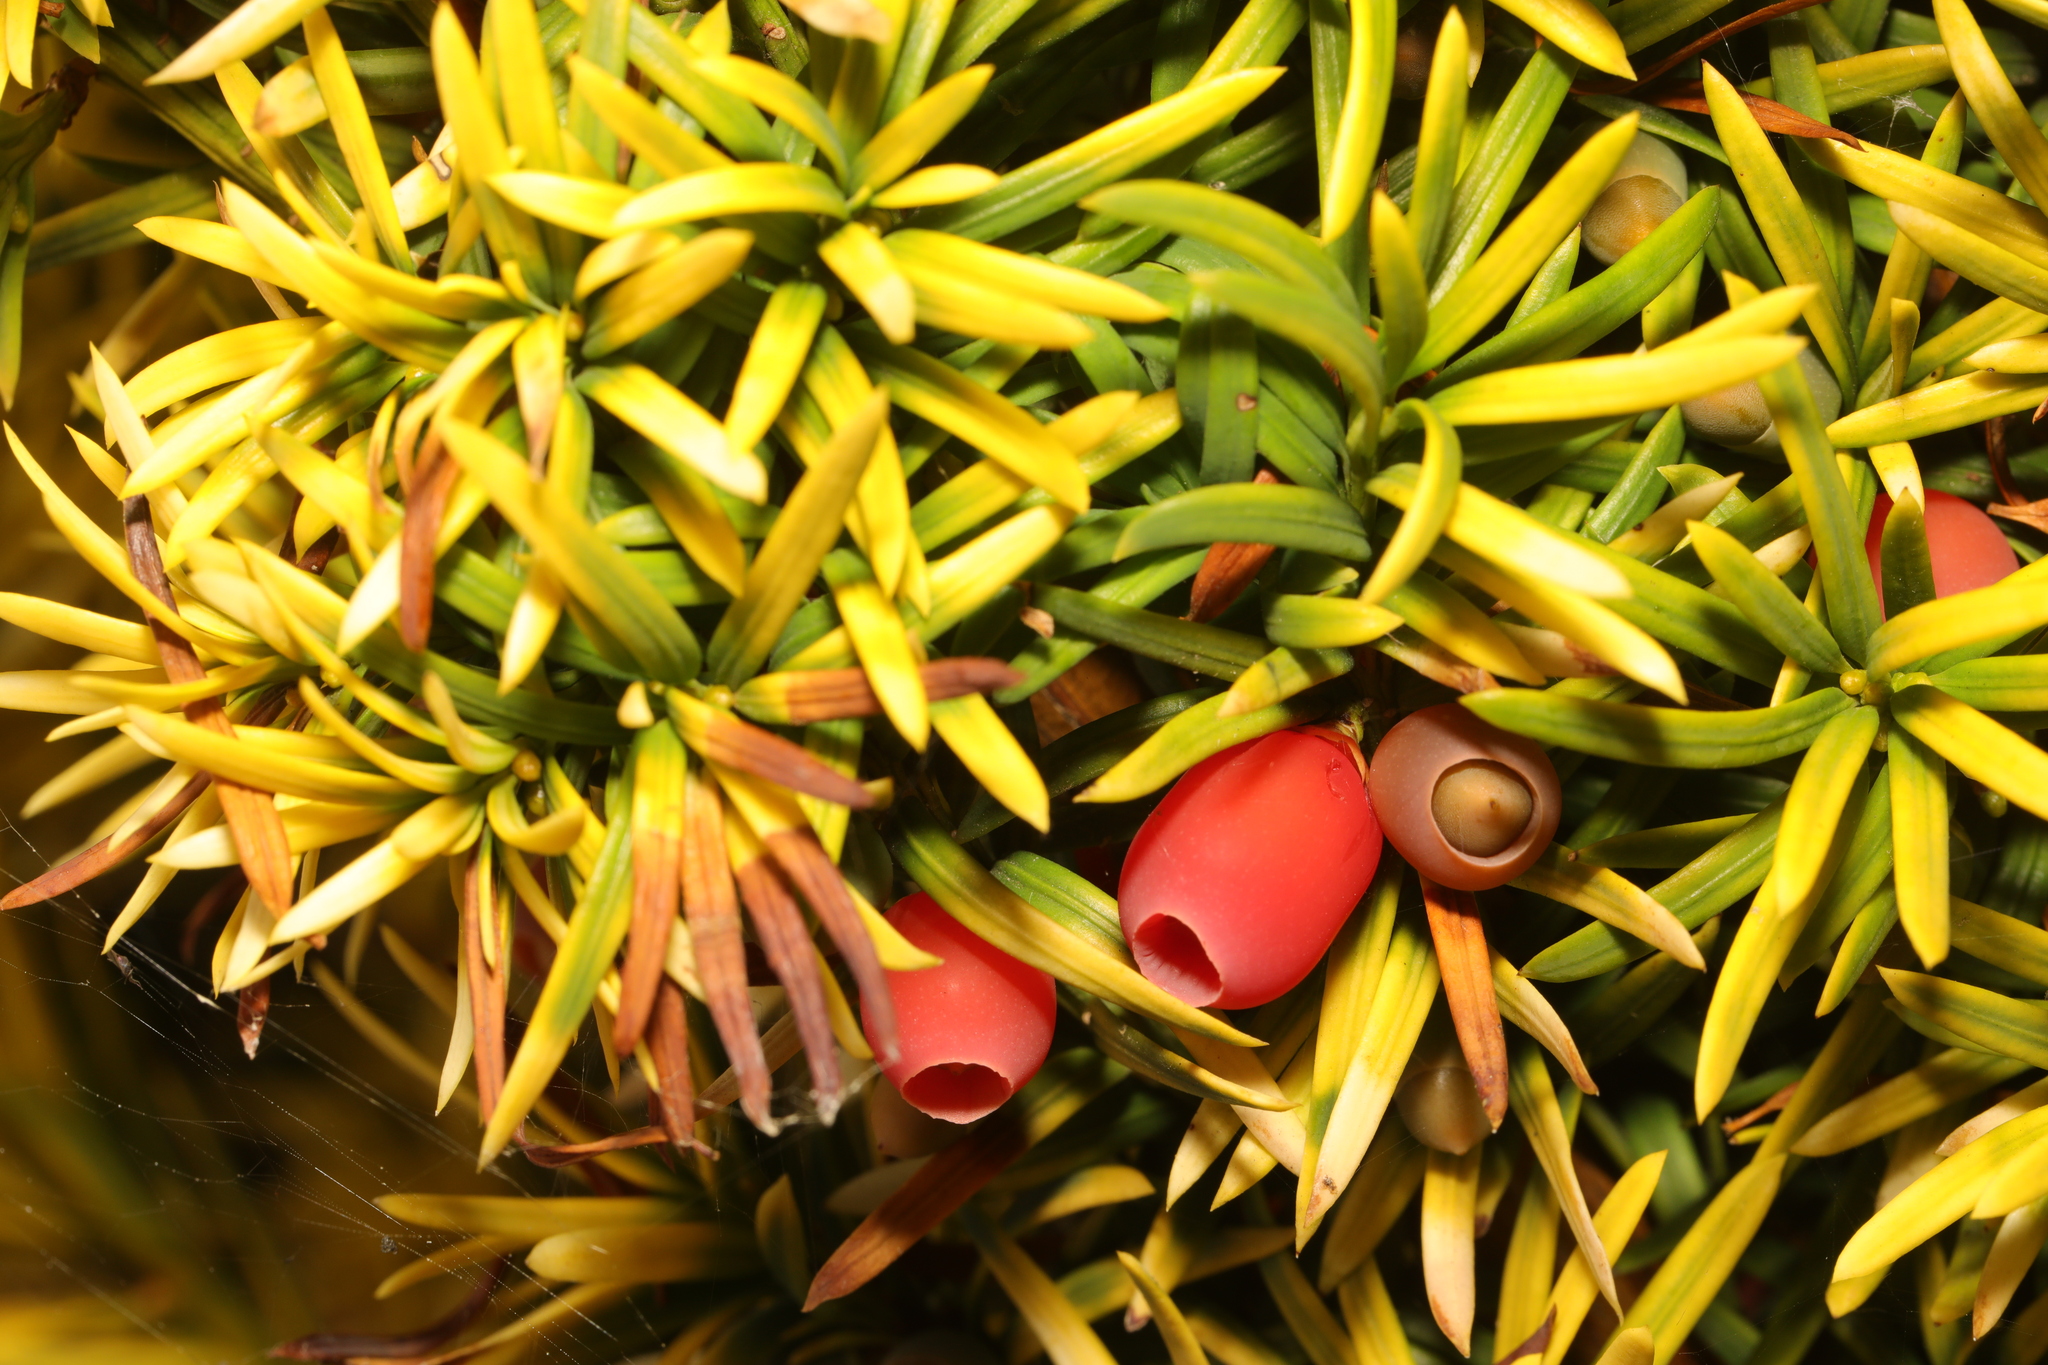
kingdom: Plantae
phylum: Tracheophyta
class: Pinopsida
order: Pinales
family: Taxaceae
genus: Taxus
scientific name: Taxus baccata
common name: Yew
